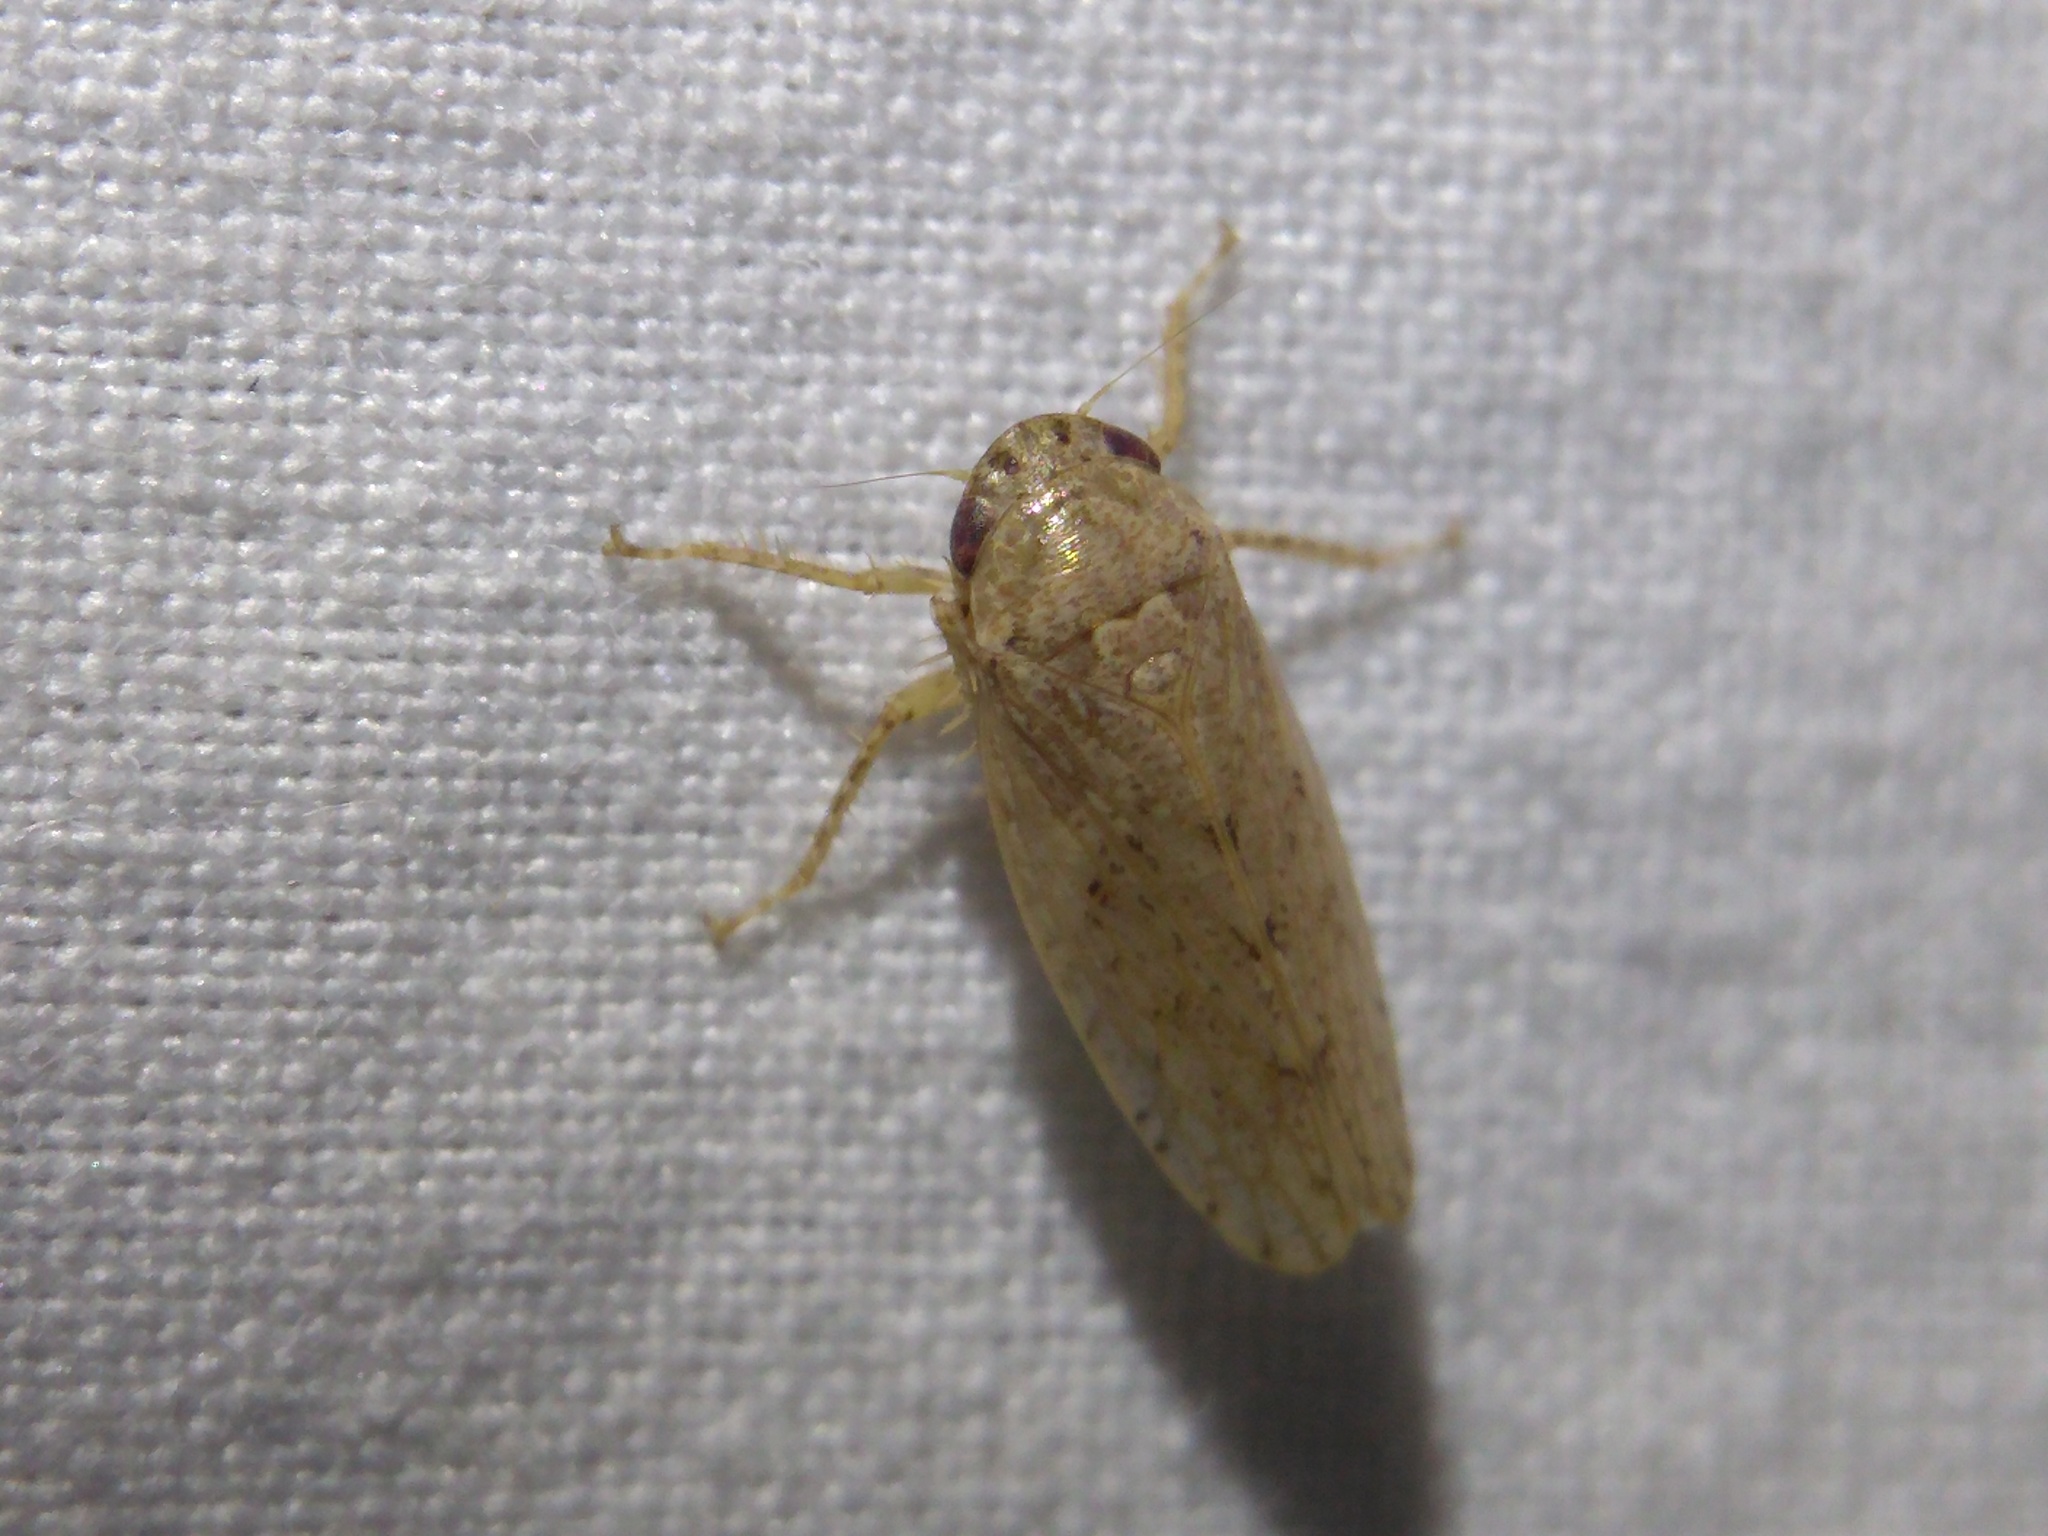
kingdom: Animalia
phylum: Arthropoda
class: Insecta
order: Hemiptera
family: Cicadellidae
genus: Curtara
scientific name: Curtara insularis
